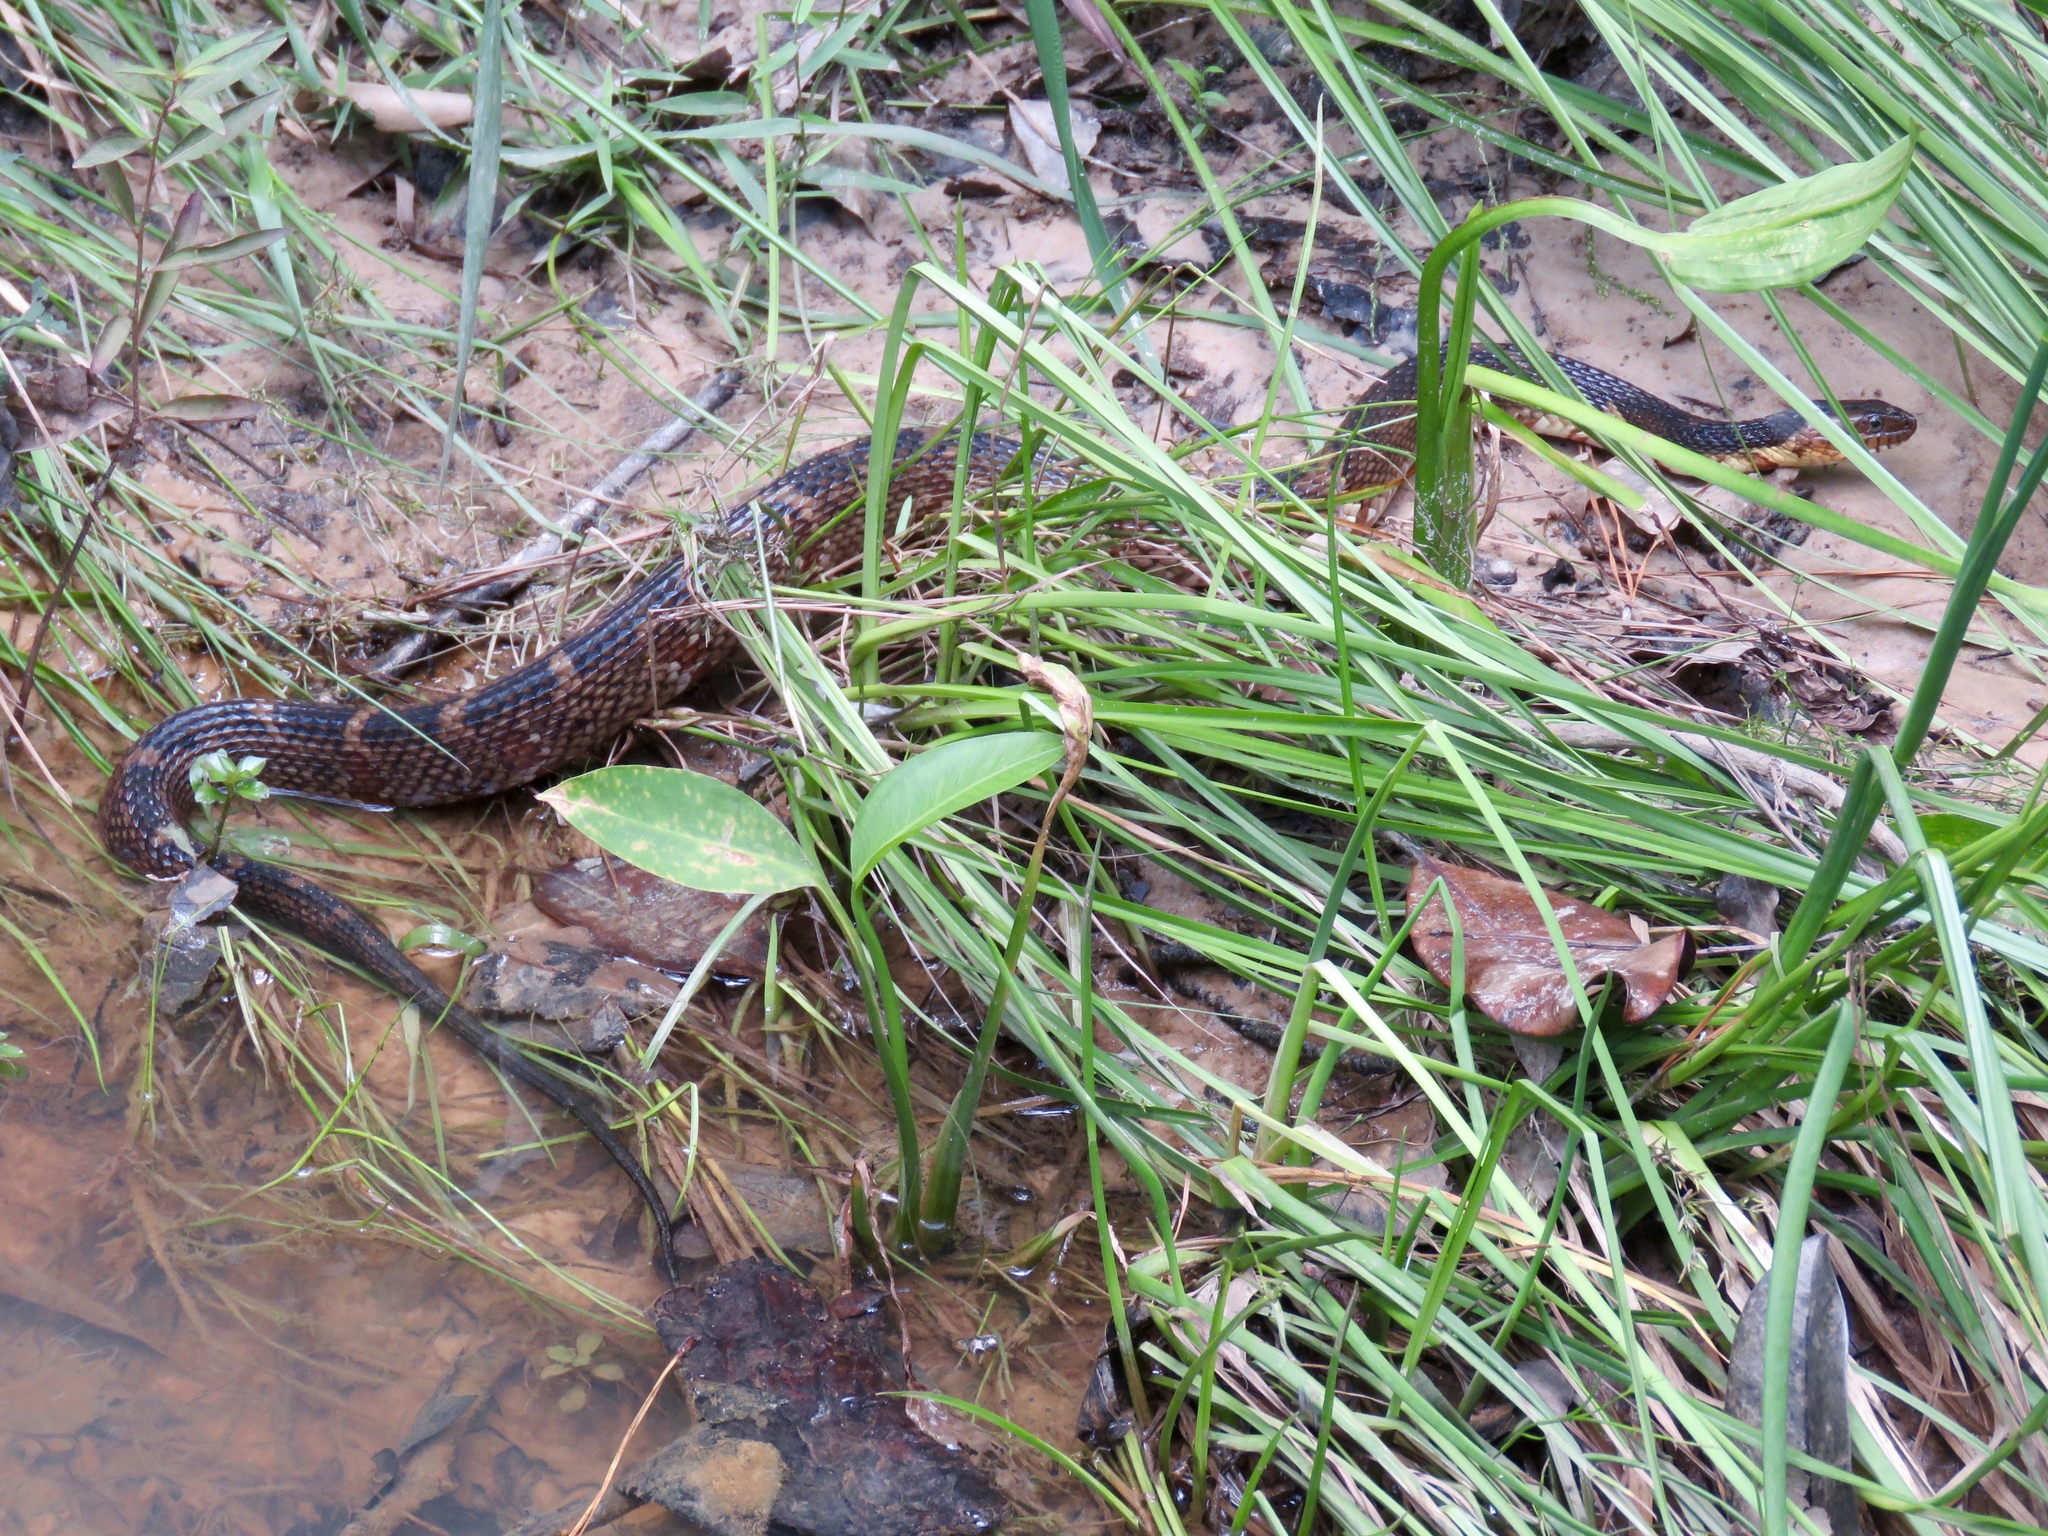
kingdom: Animalia
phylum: Chordata
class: Squamata
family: Colubridae
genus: Nerodia
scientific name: Nerodia fasciata
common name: Southern water snake
